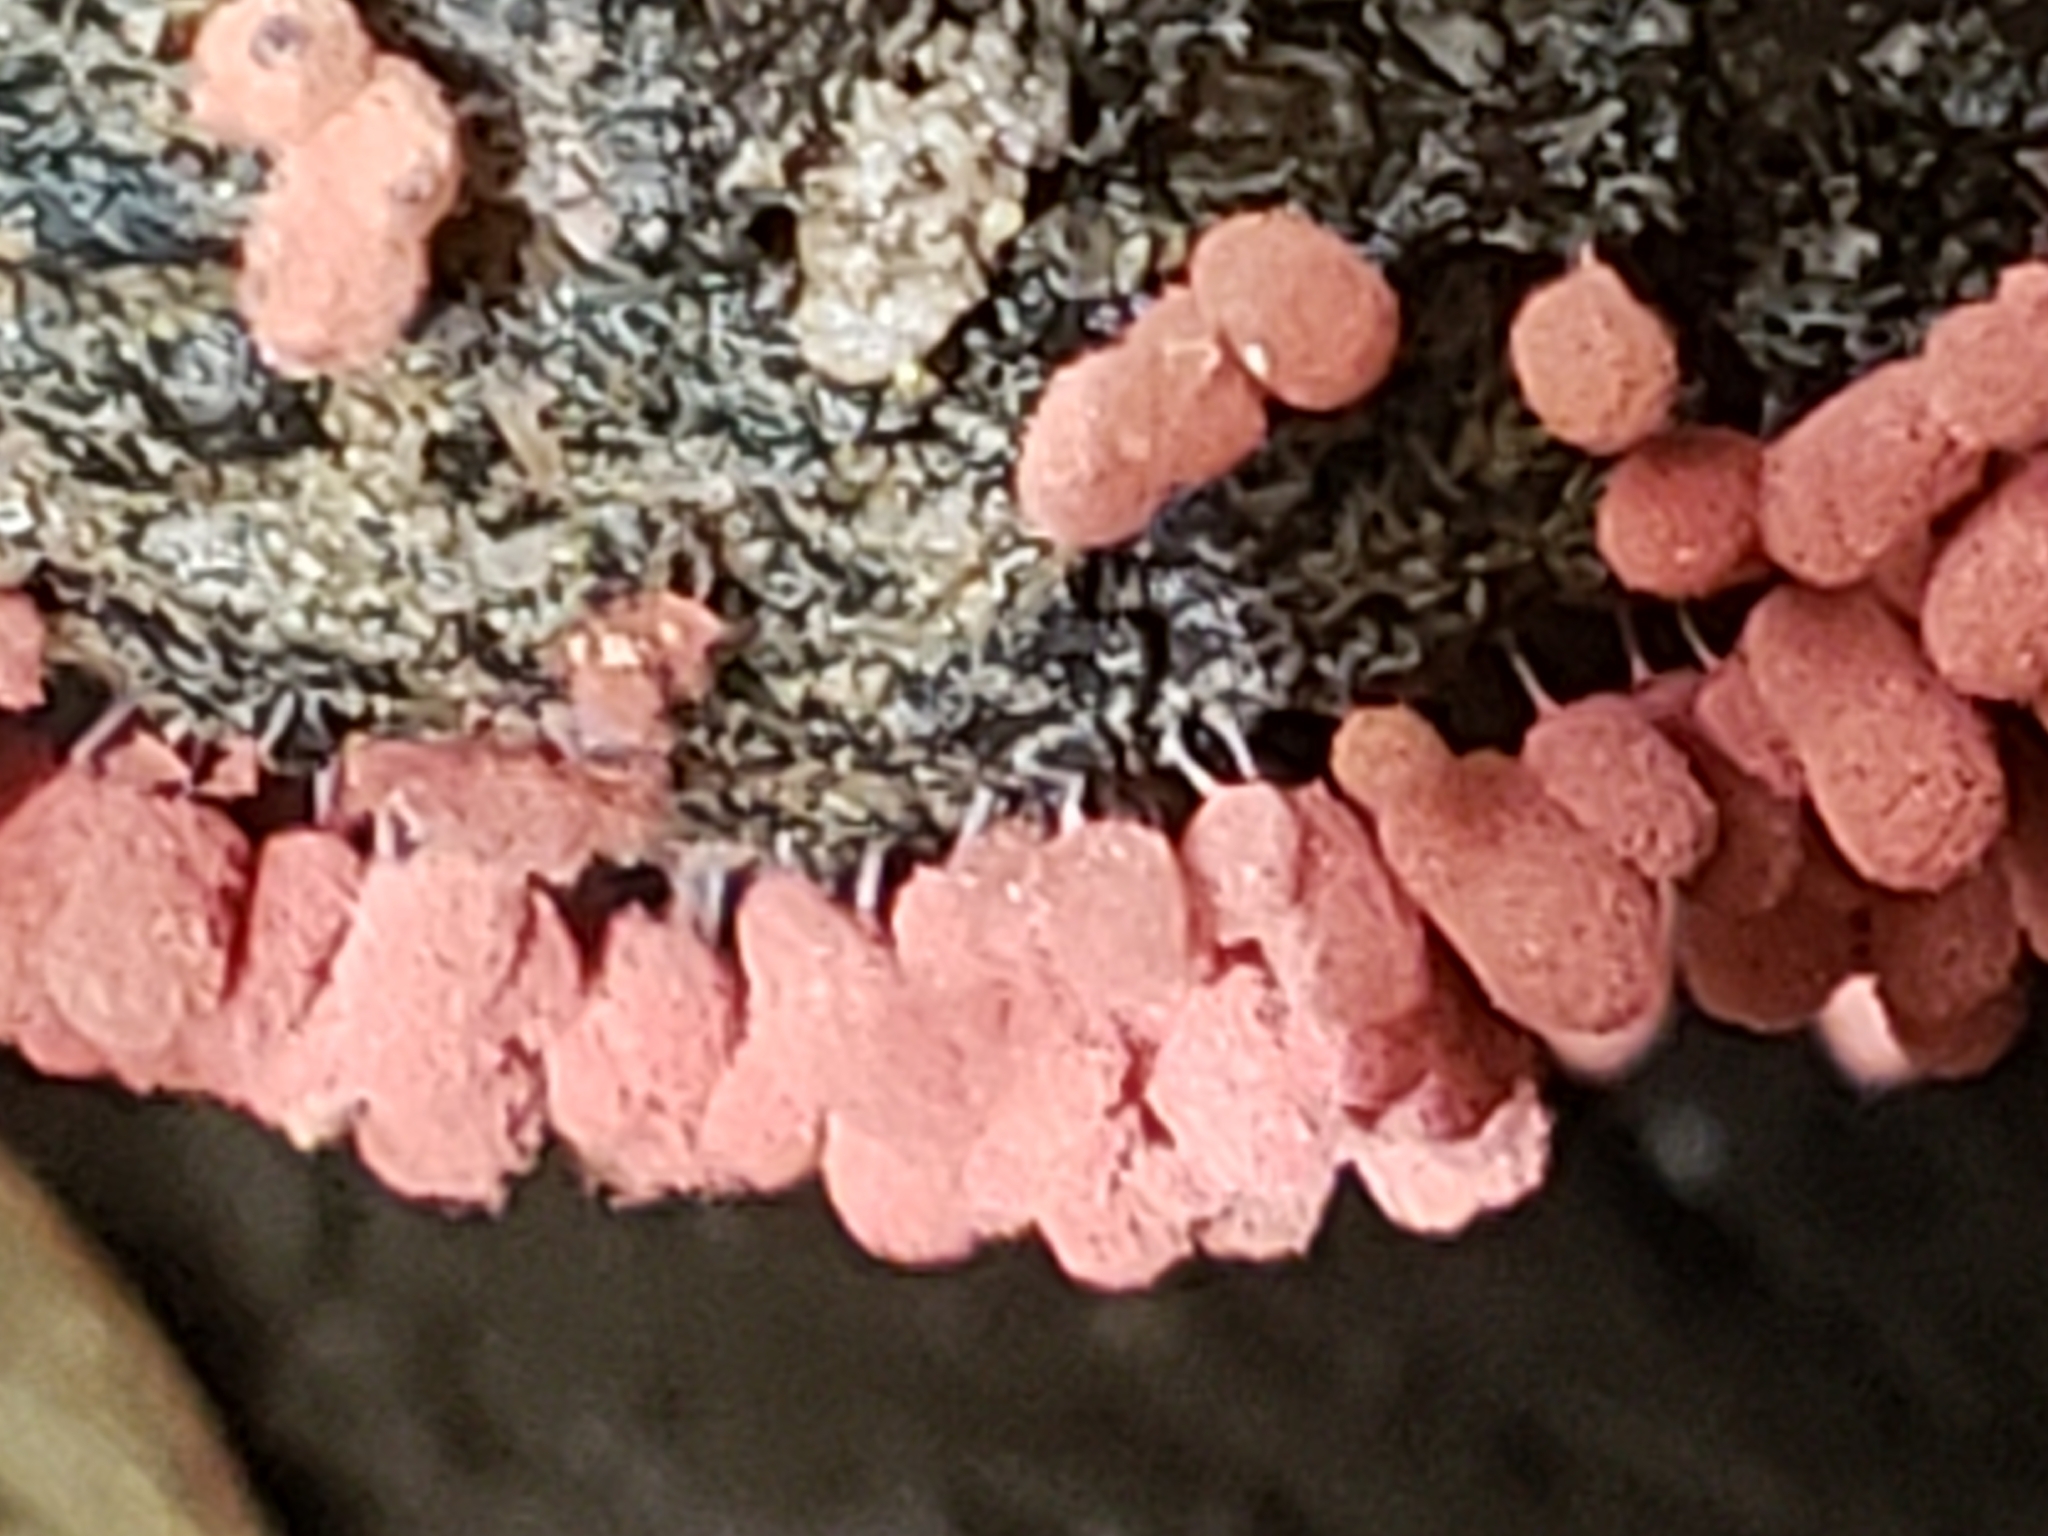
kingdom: Protozoa
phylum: Mycetozoa
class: Myxomycetes
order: Trichiales
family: Arcyriaceae
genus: Arcyria
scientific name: Arcyria denudata
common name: Carnival candy slime mold
